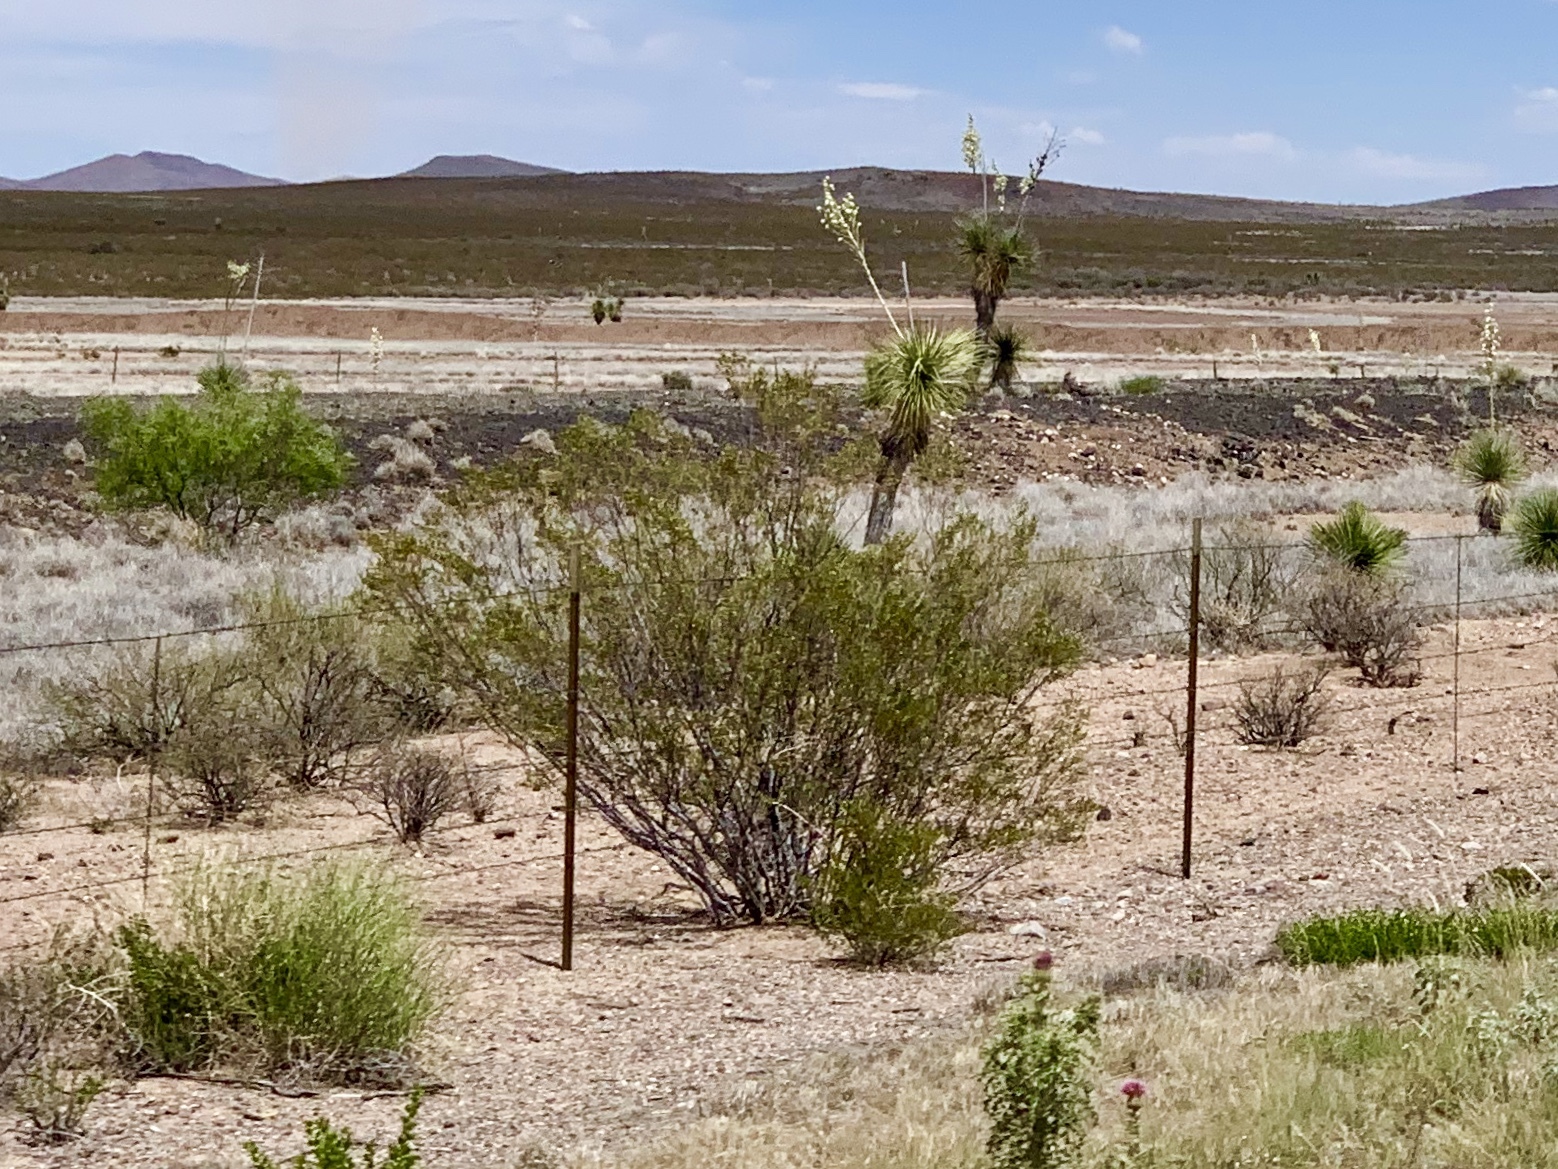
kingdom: Plantae
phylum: Tracheophyta
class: Magnoliopsida
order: Zygophyllales
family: Zygophyllaceae
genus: Larrea
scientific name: Larrea tridentata
